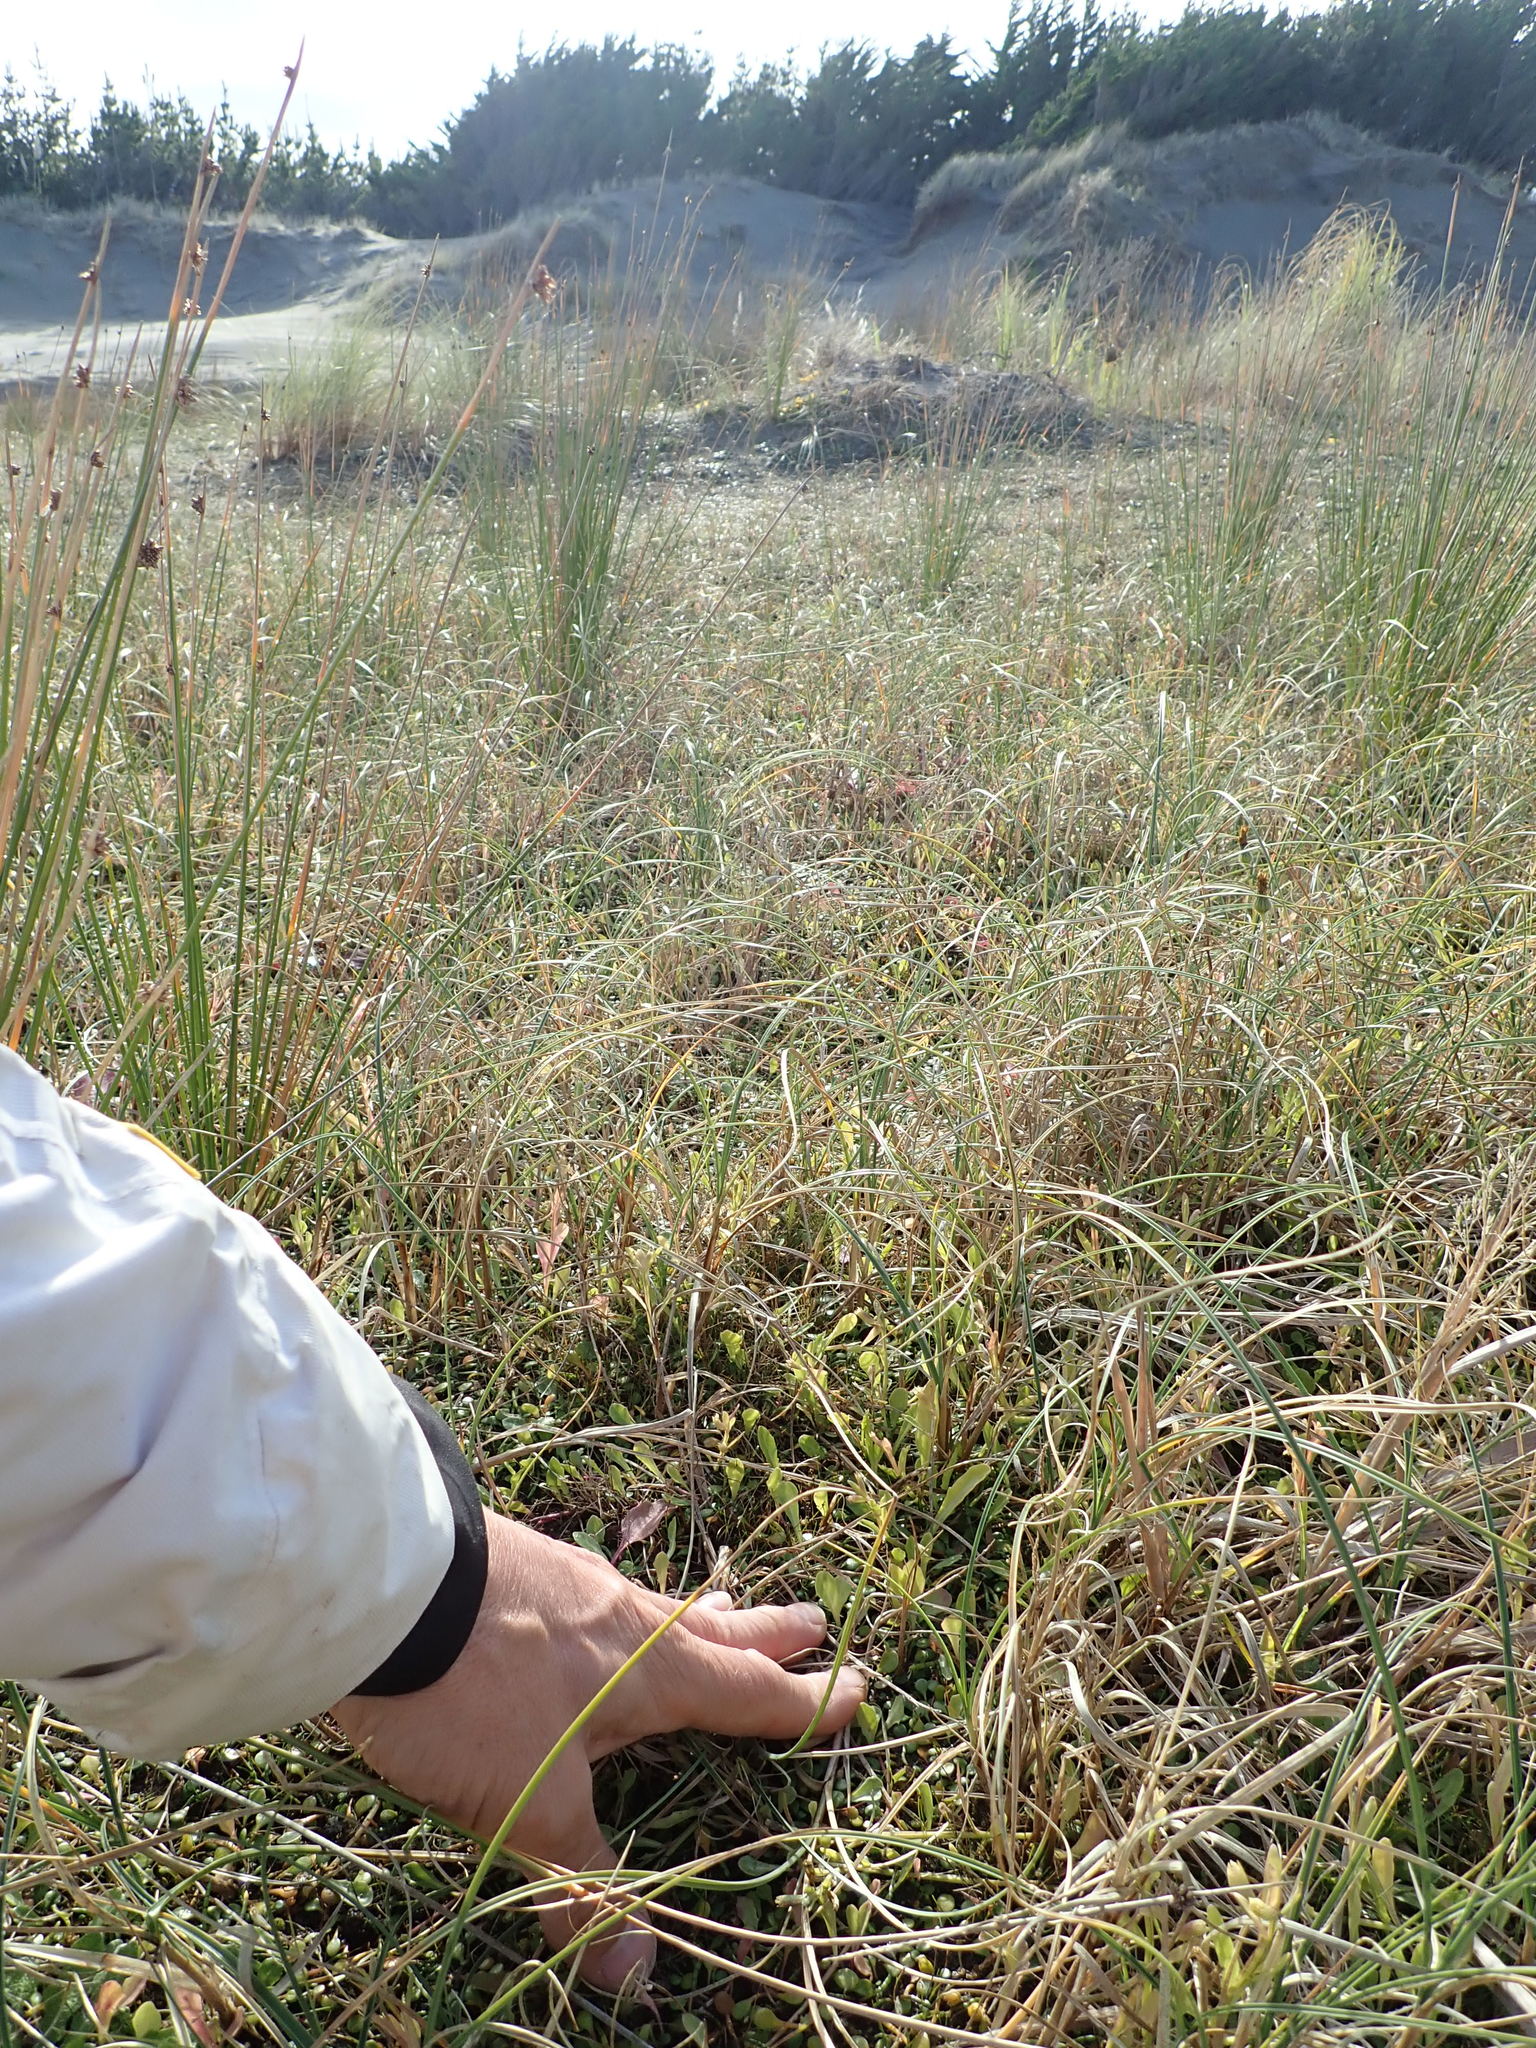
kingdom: Plantae
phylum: Tracheophyta
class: Magnoliopsida
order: Asterales
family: Campanulaceae
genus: Lobelia
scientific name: Lobelia anceps
